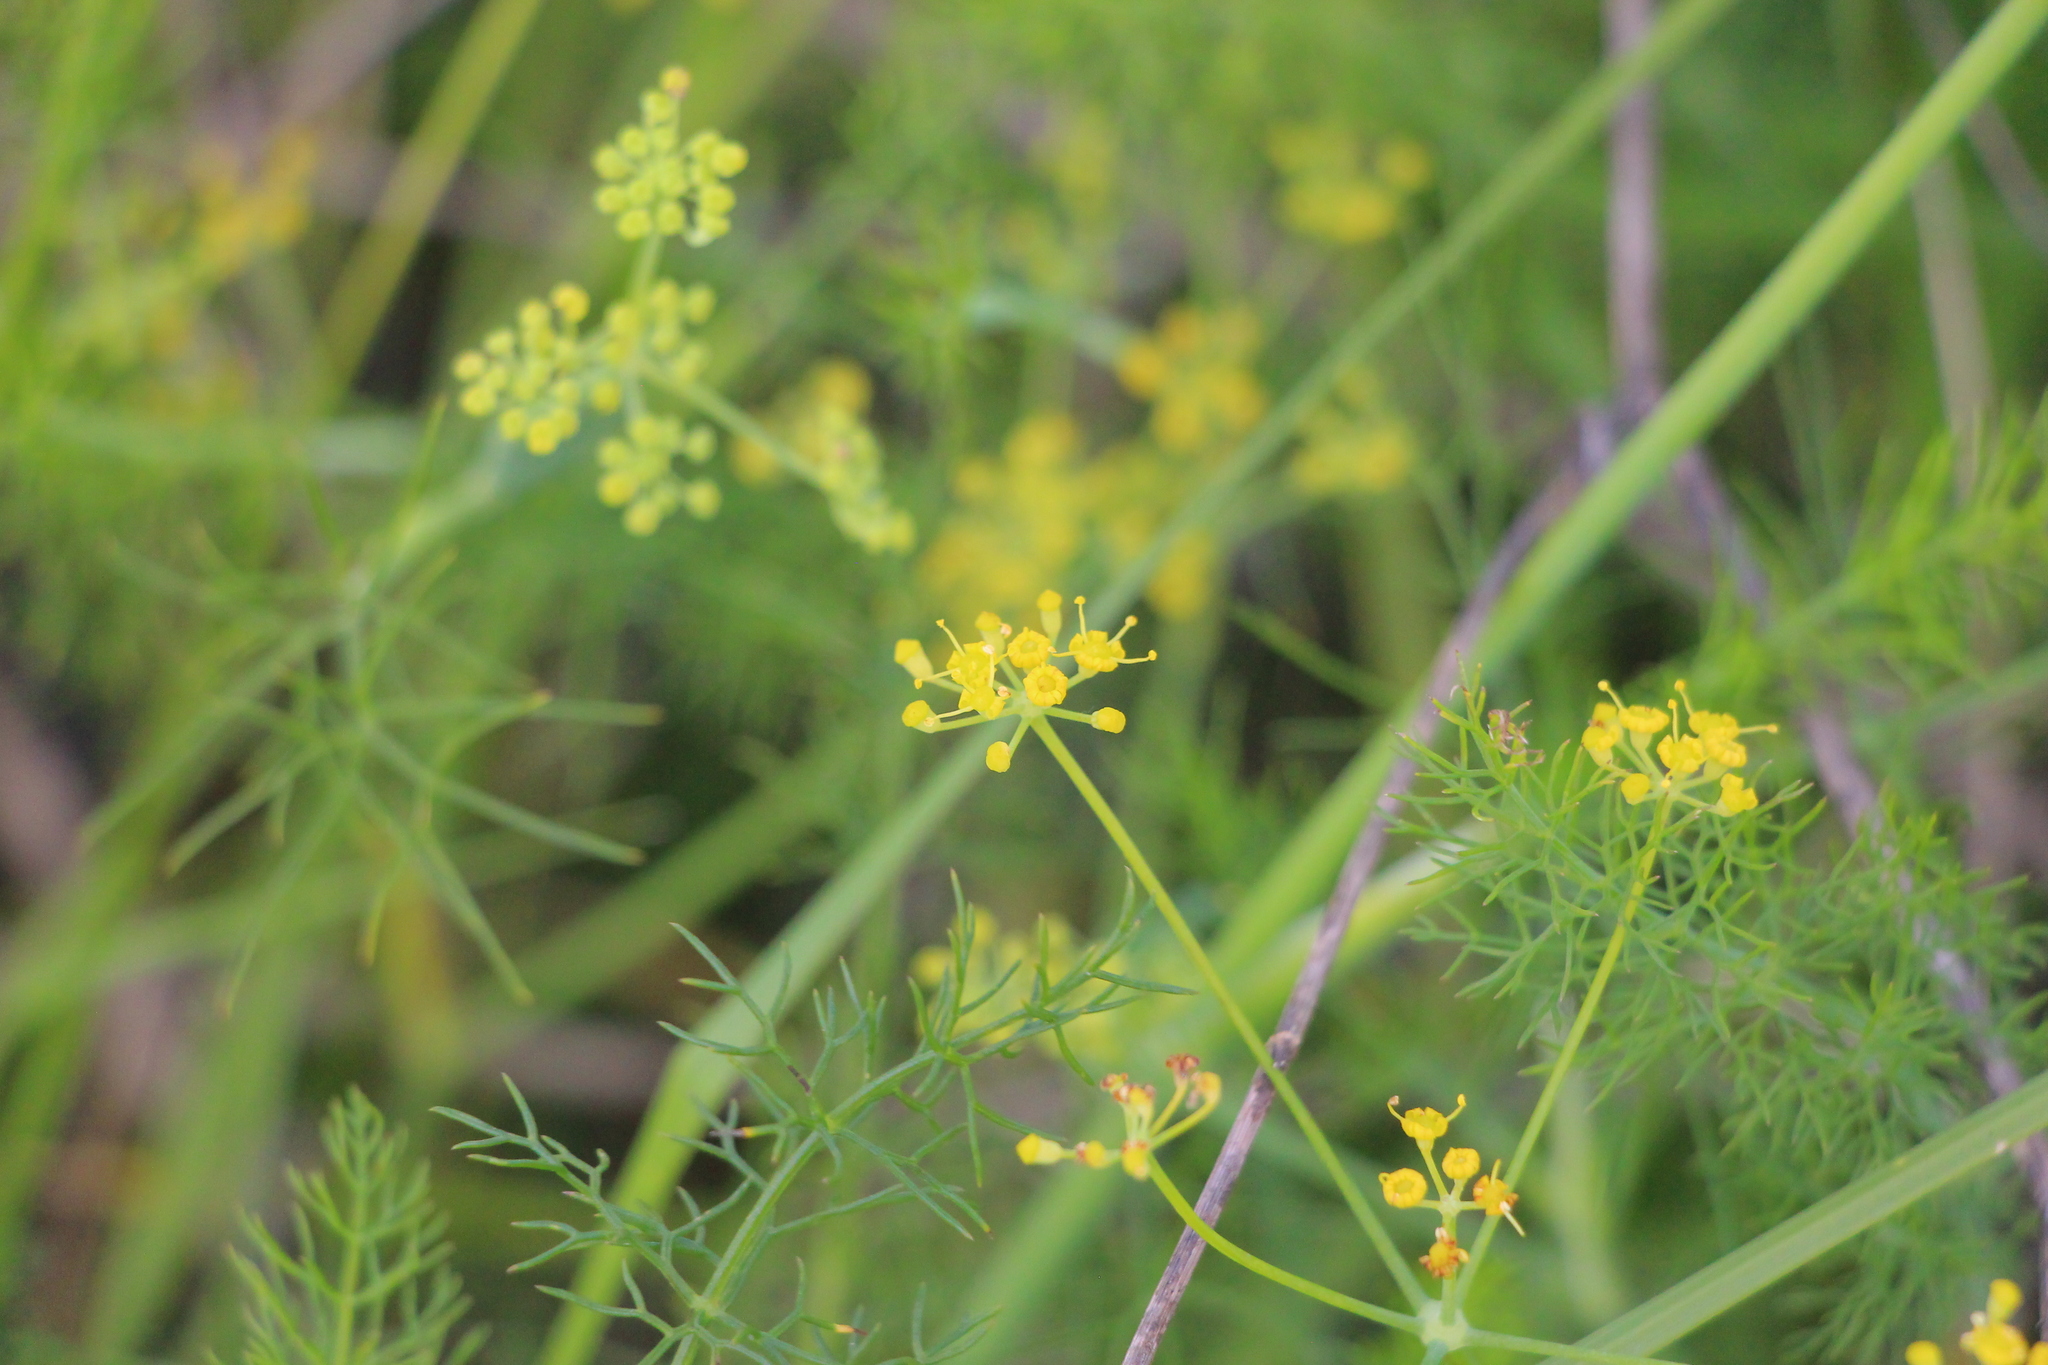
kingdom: Plantae
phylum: Tracheophyta
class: Magnoliopsida
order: Apiales
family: Apiaceae
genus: Foeniculum
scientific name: Foeniculum vulgare
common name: Fennel
